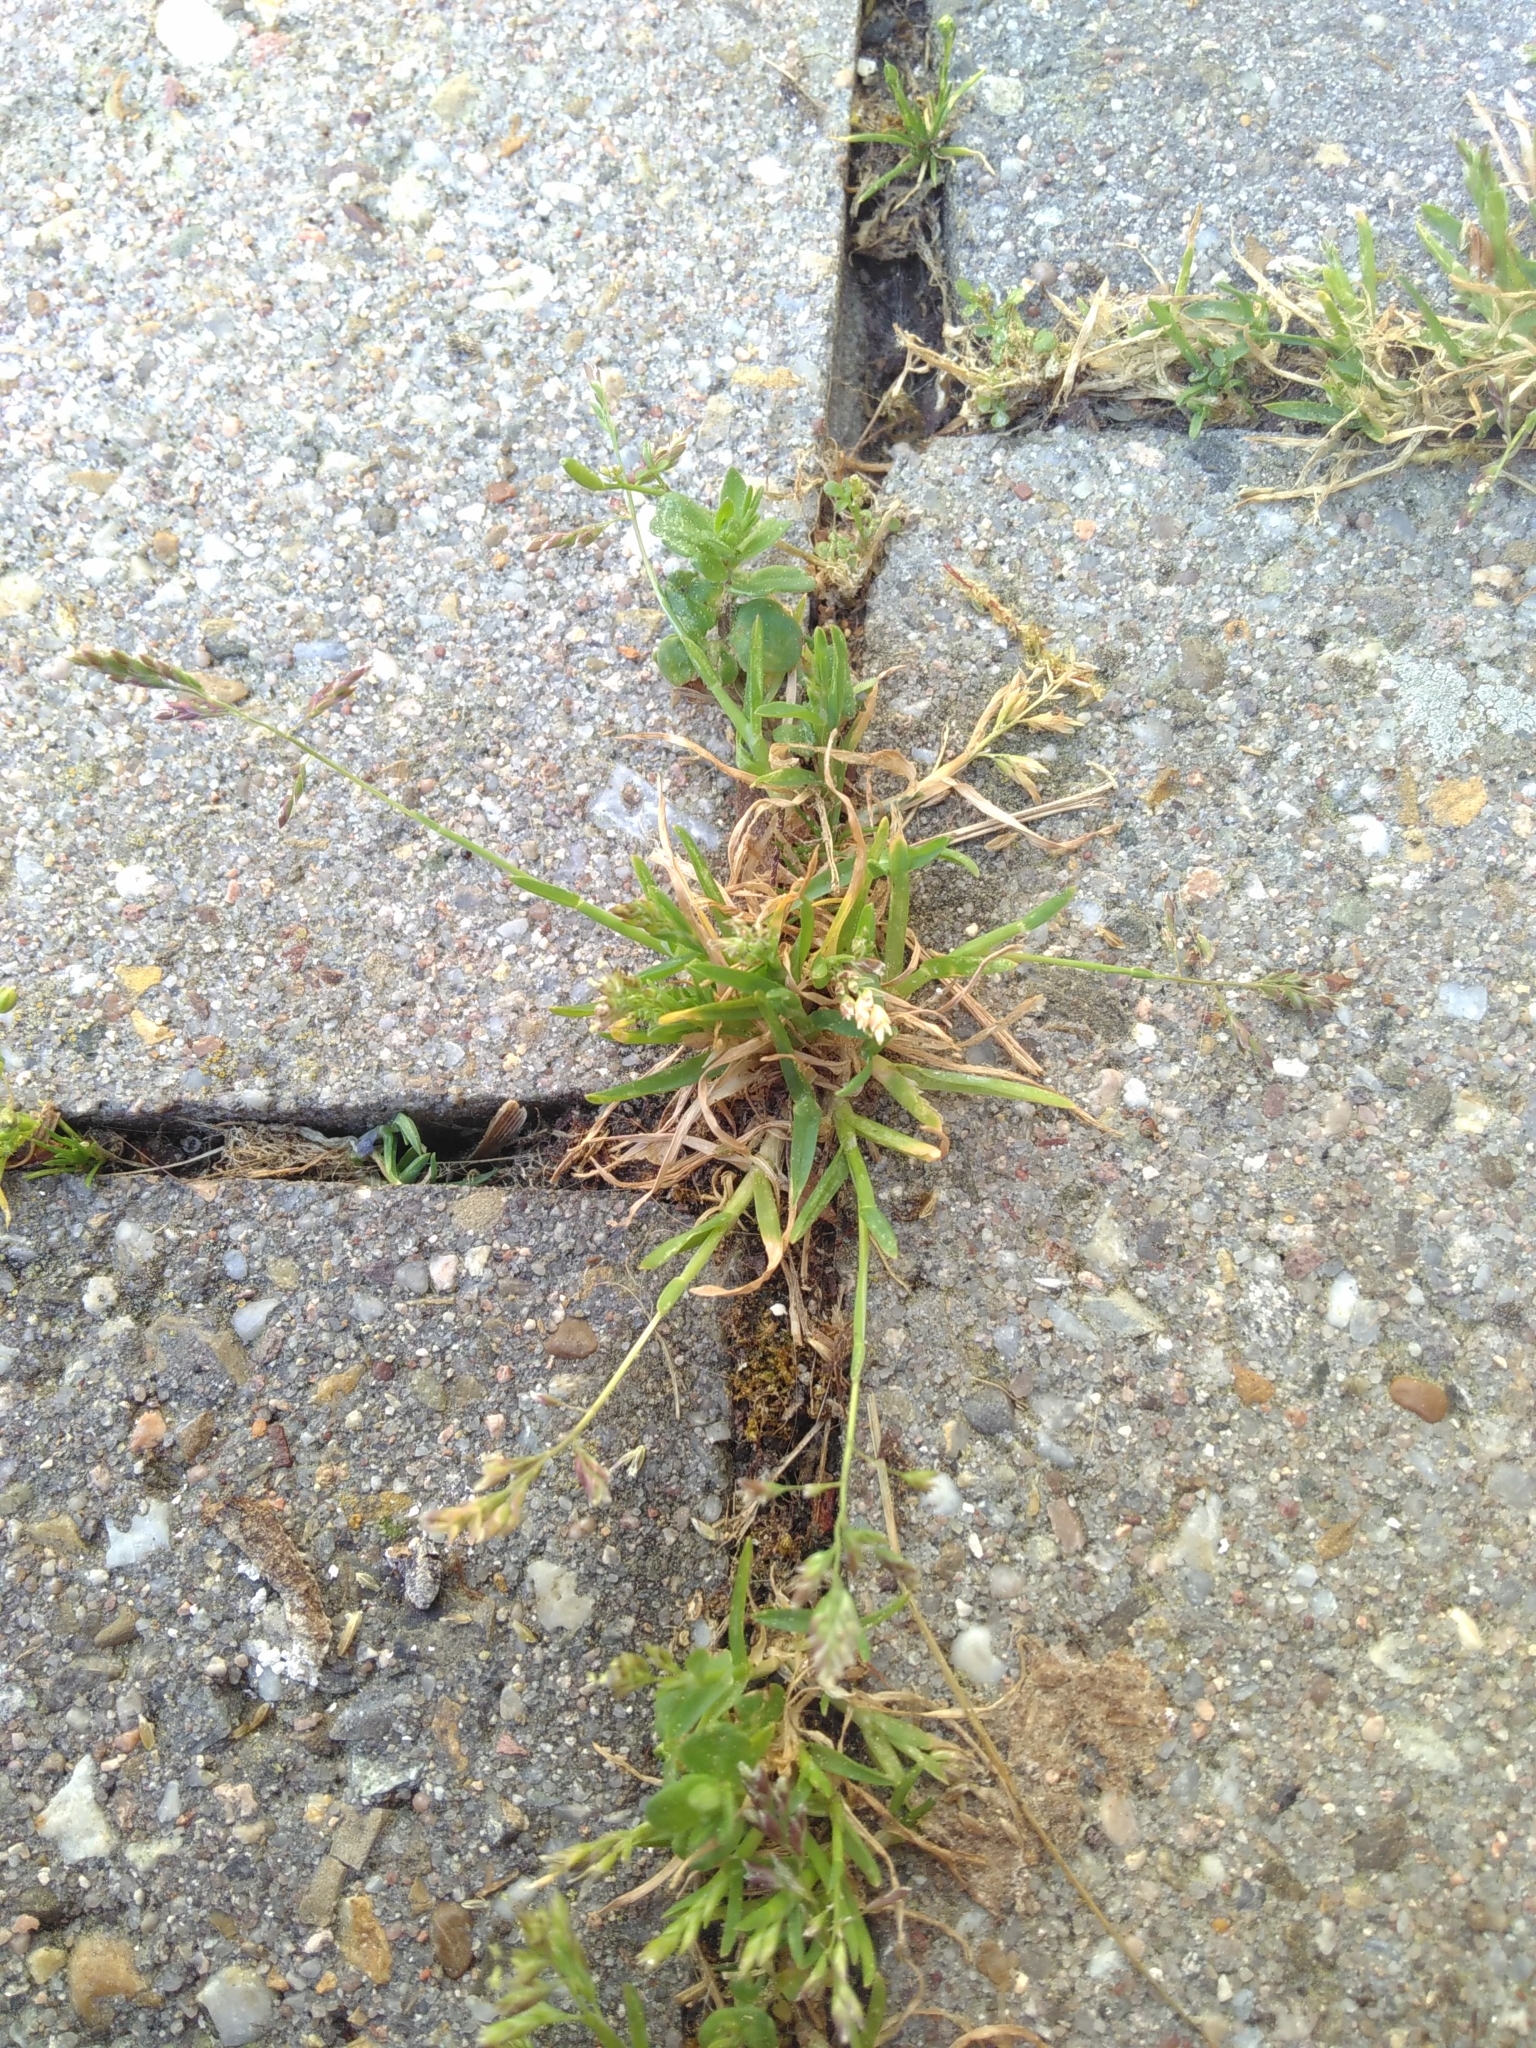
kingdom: Plantae
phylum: Tracheophyta
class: Liliopsida
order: Poales
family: Poaceae
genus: Poa
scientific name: Poa annua
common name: Annual bluegrass
